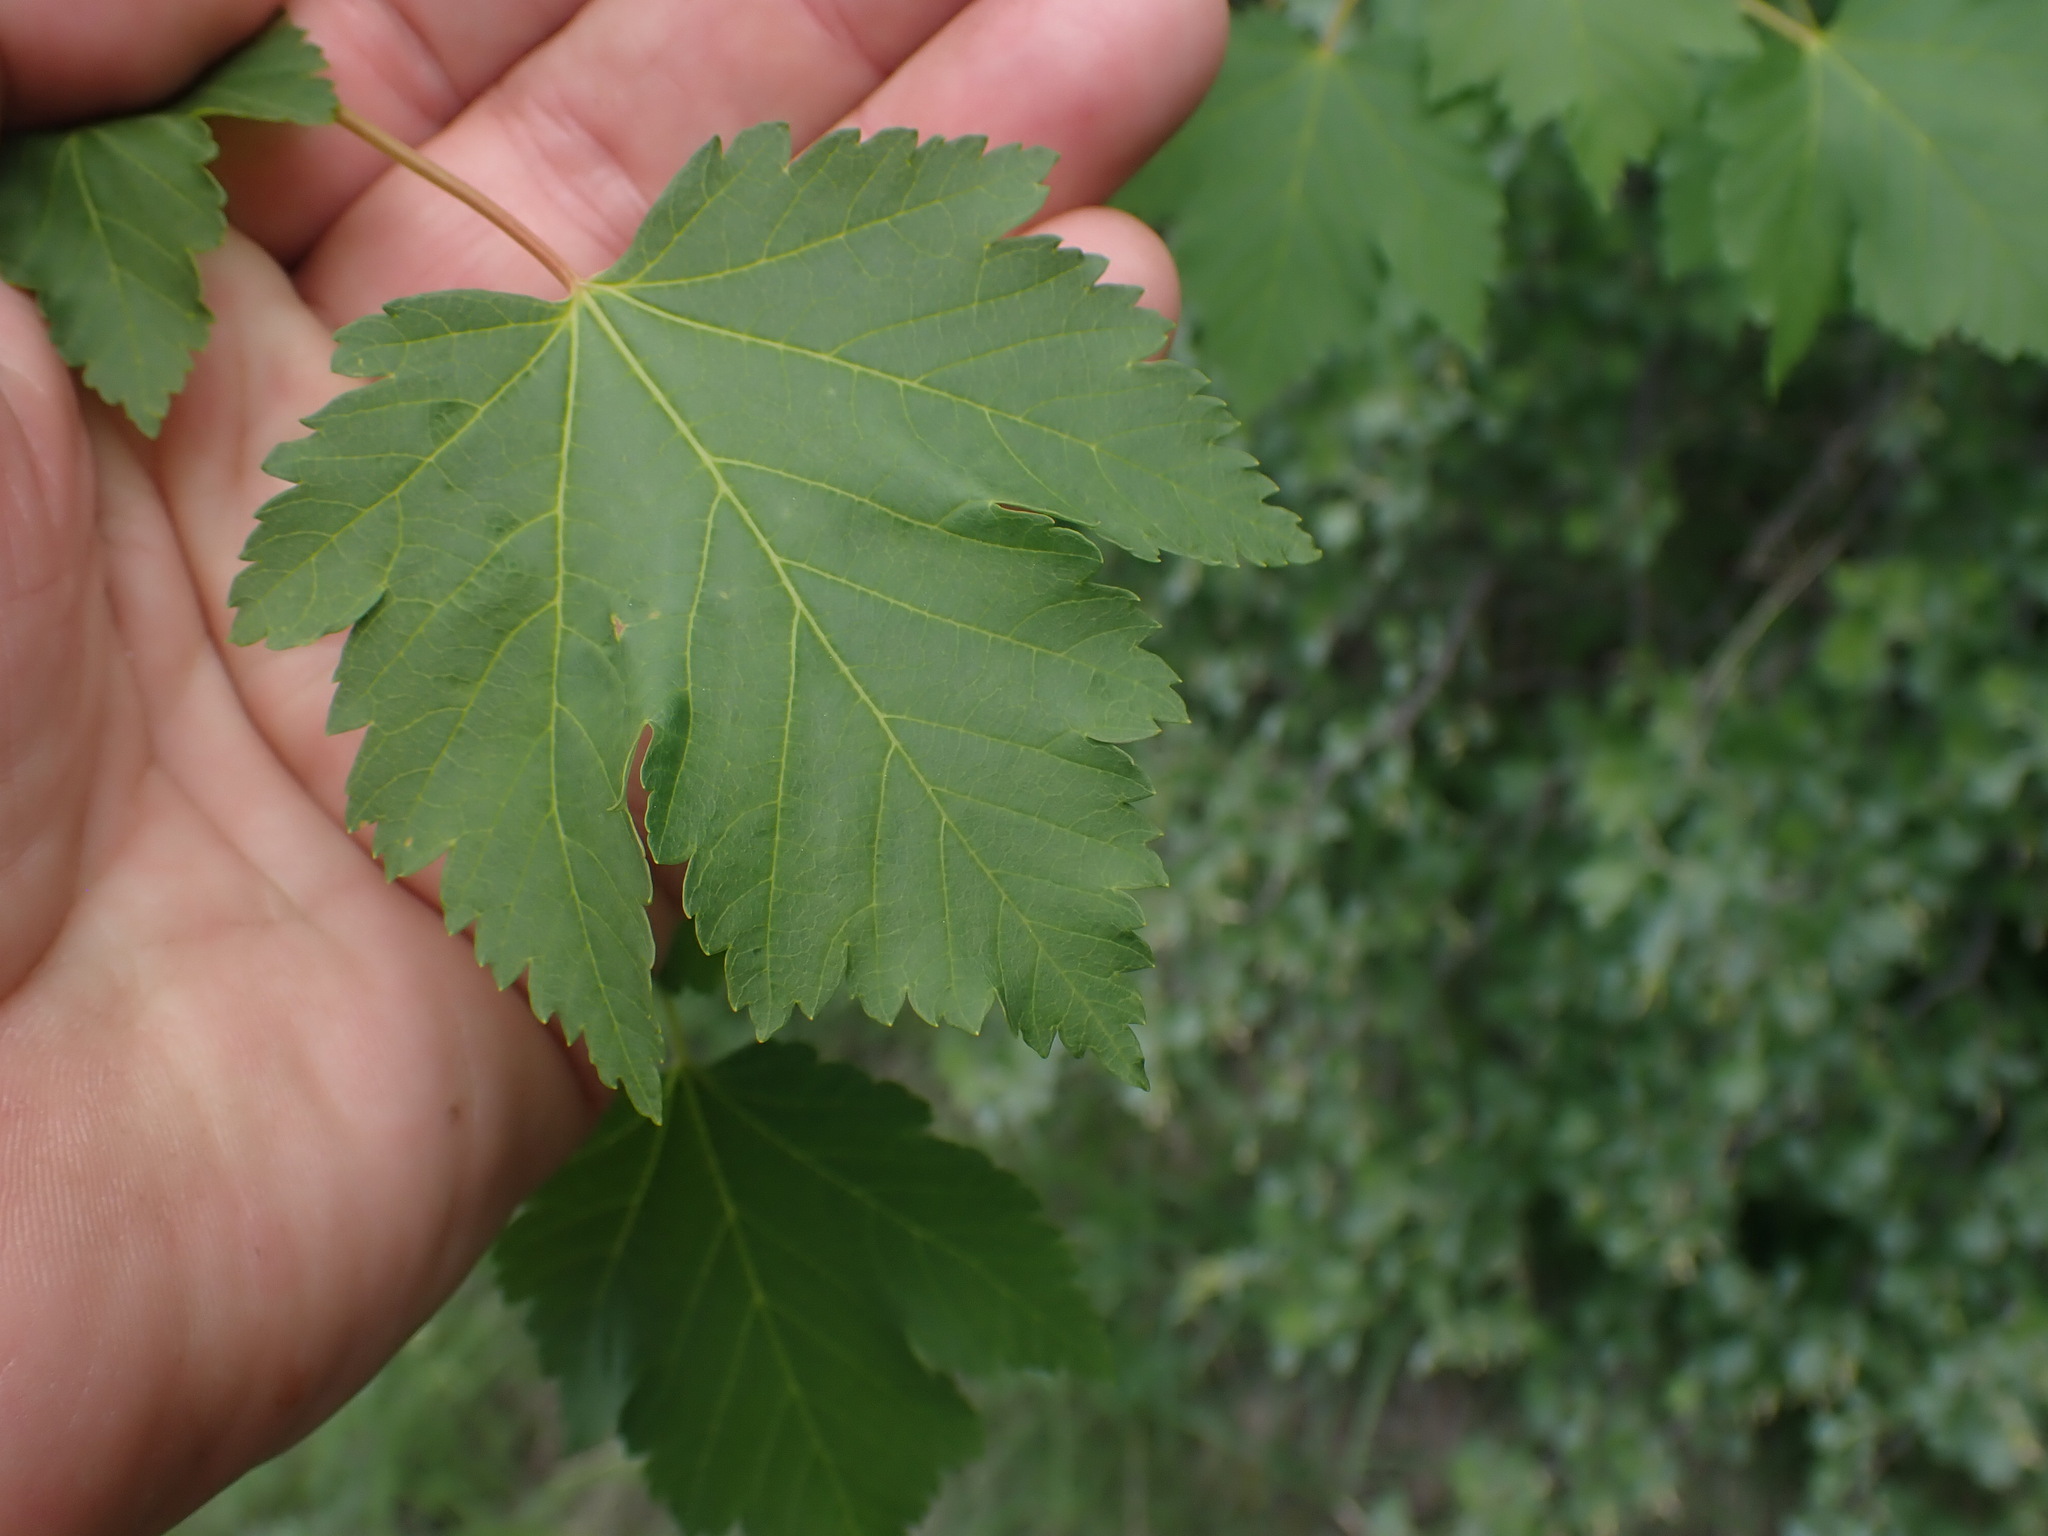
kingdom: Plantae
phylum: Tracheophyta
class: Magnoliopsida
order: Sapindales
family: Sapindaceae
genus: Acer
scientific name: Acer glabrum
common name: Rocky mountain maple
